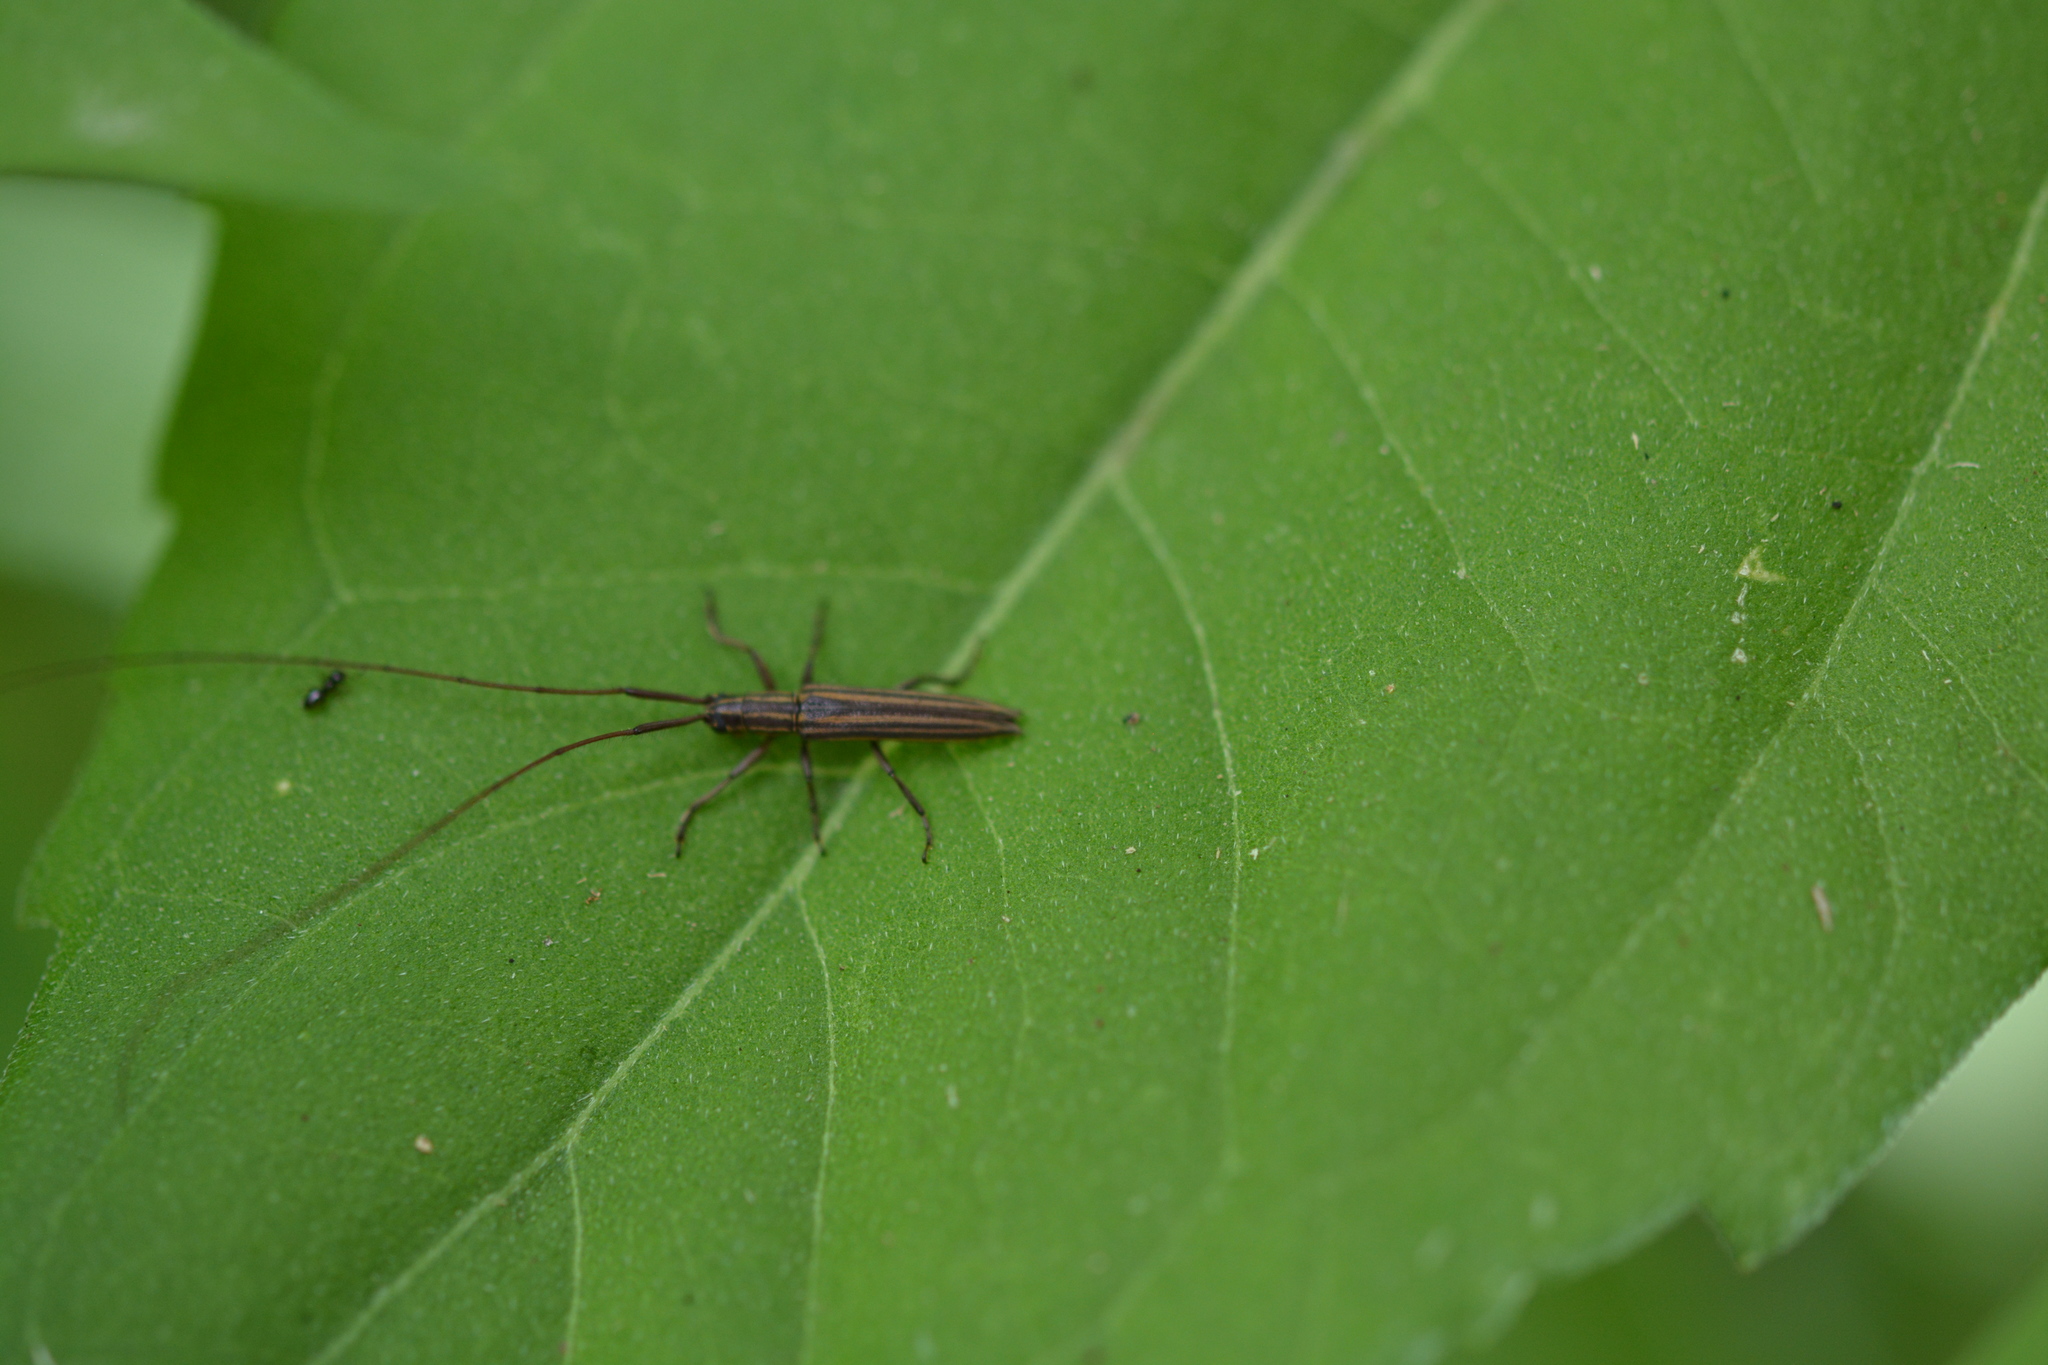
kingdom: Animalia
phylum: Arthropoda
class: Insecta
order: Coleoptera
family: Cerambycidae
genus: Hippopsis
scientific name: Hippopsis
